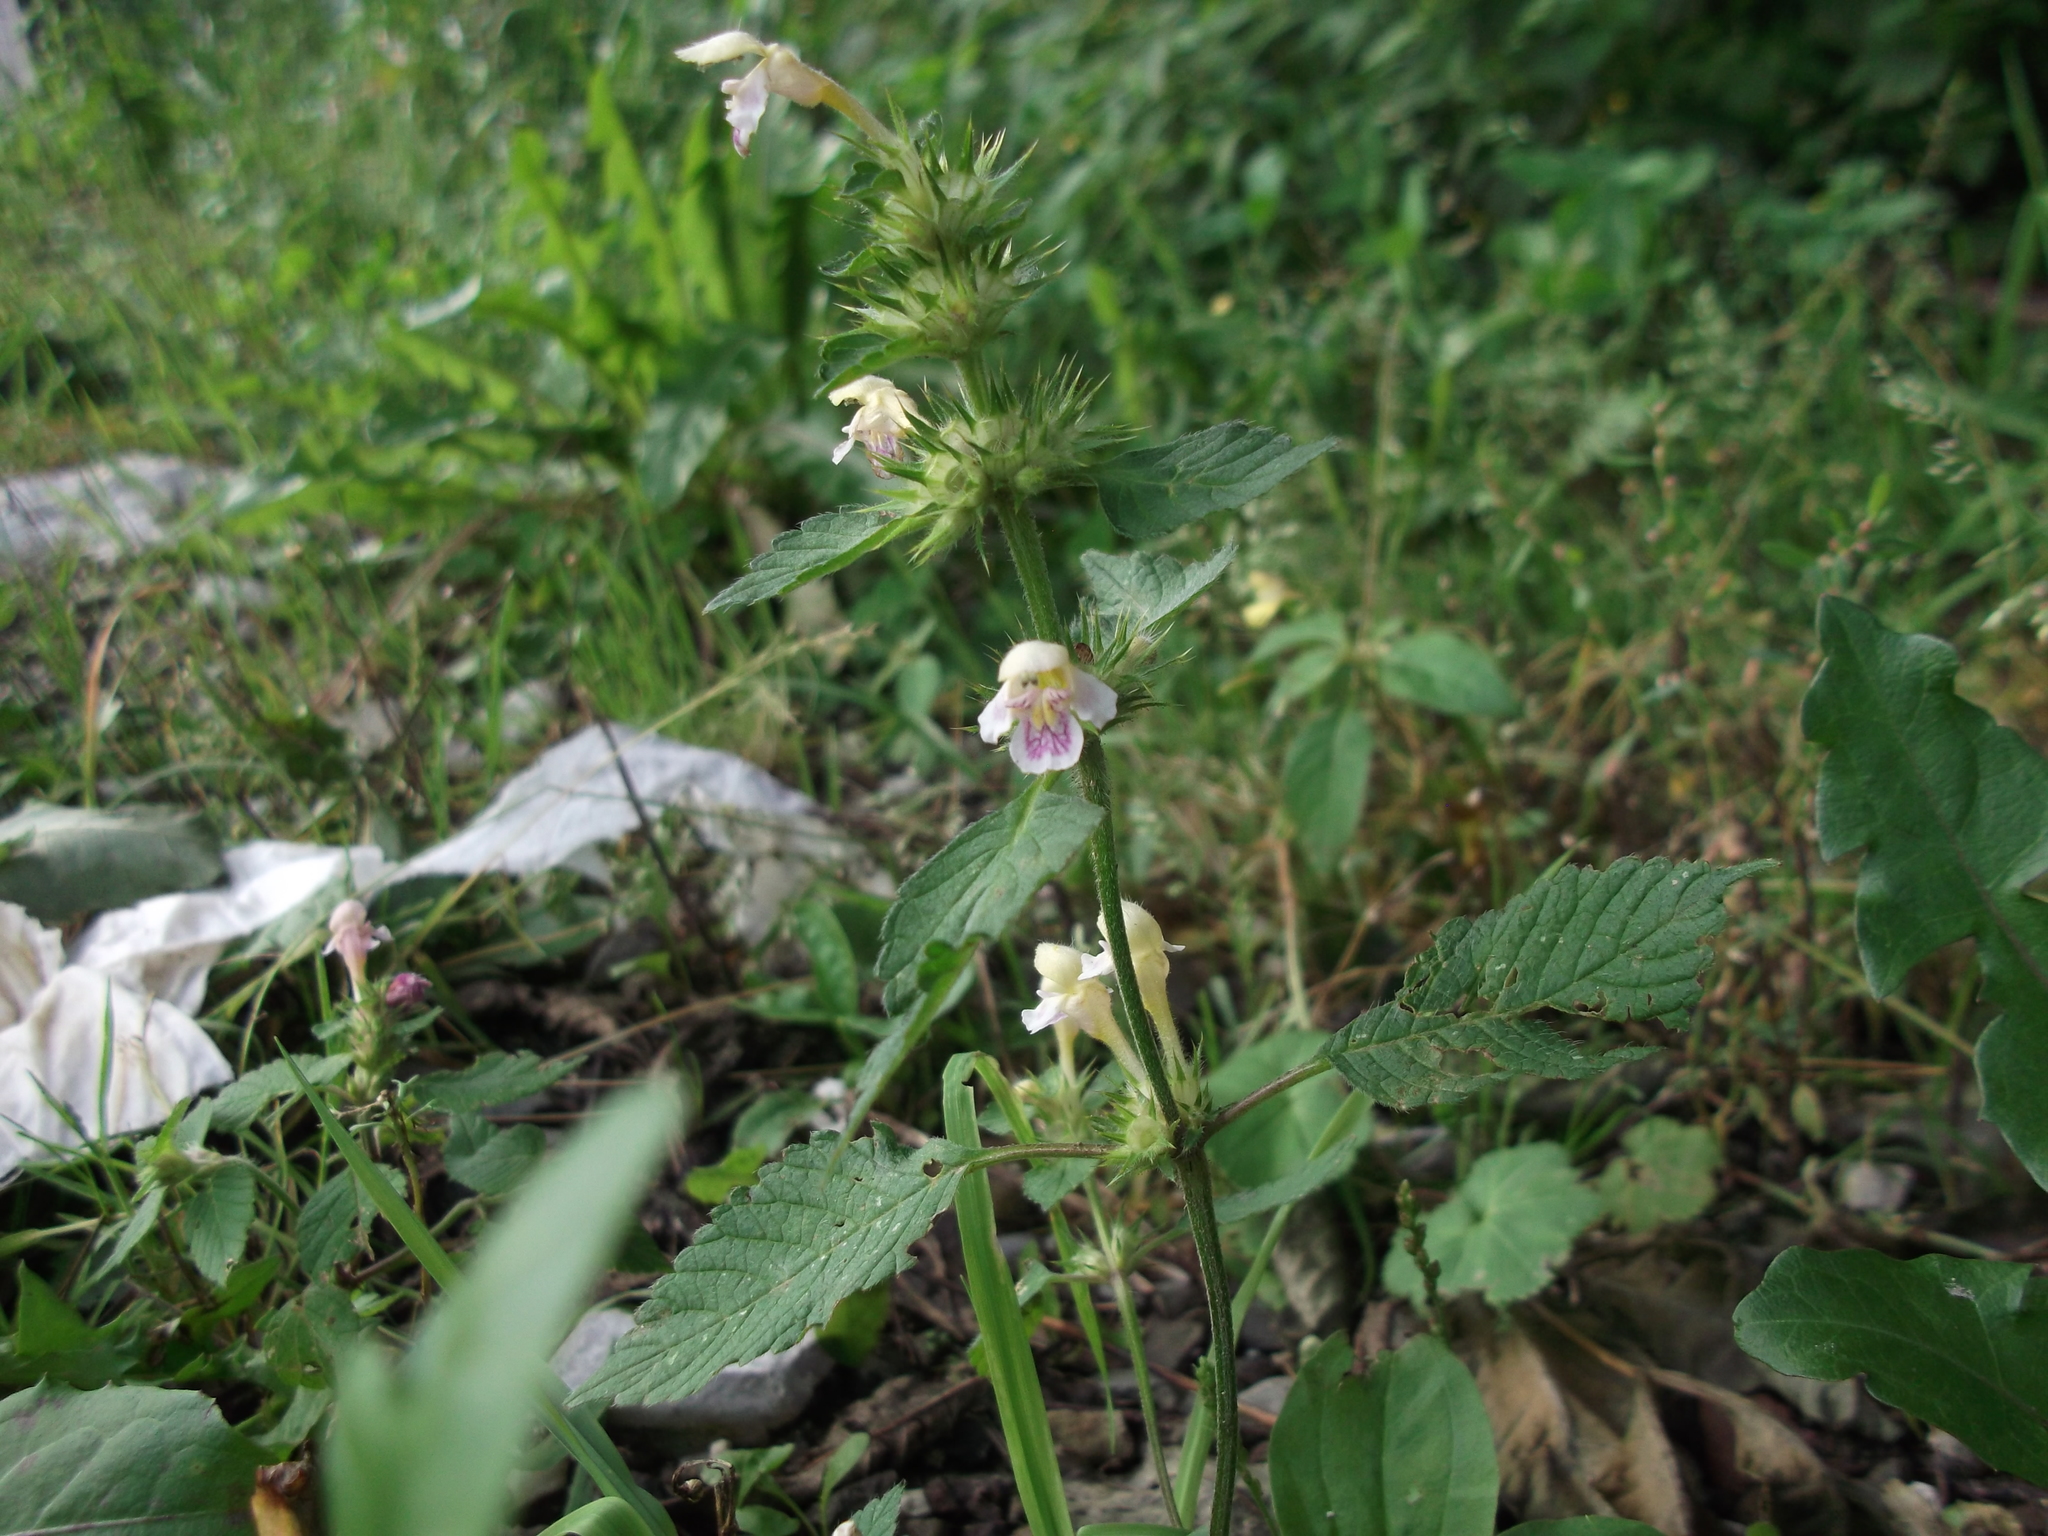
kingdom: Plantae
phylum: Tracheophyta
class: Magnoliopsida
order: Lamiales
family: Lamiaceae
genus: Galeopsis
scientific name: Galeopsis speciosa
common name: Large-flowered hemp-nettle
